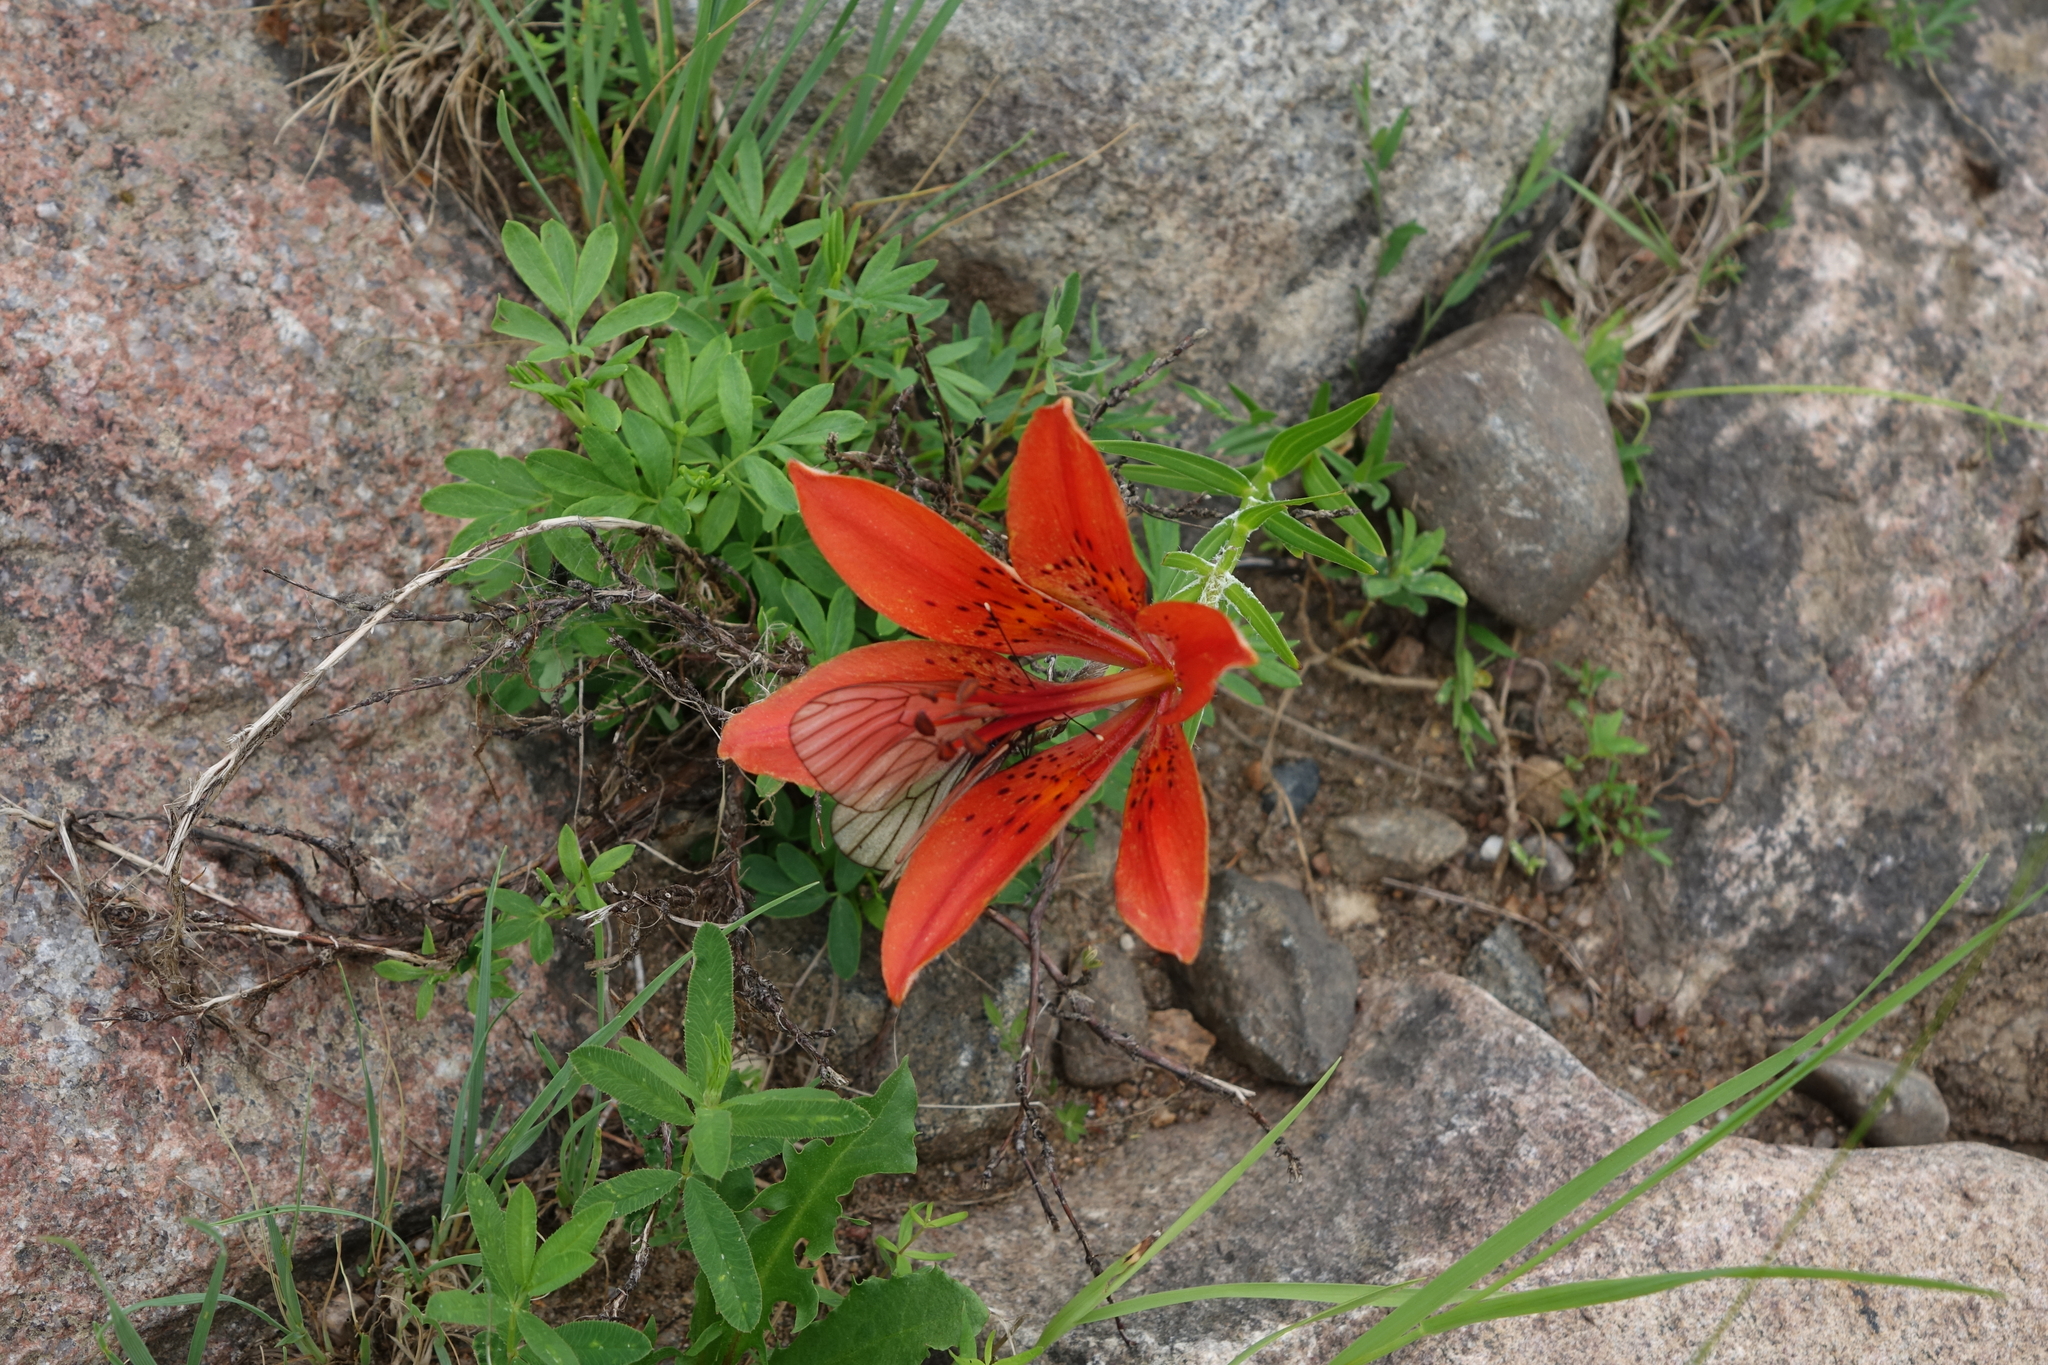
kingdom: Plantae
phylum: Tracheophyta
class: Liliopsida
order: Liliales
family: Liliaceae
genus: Lilium
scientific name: Lilium pensylvanicum
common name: Candlestick lily
